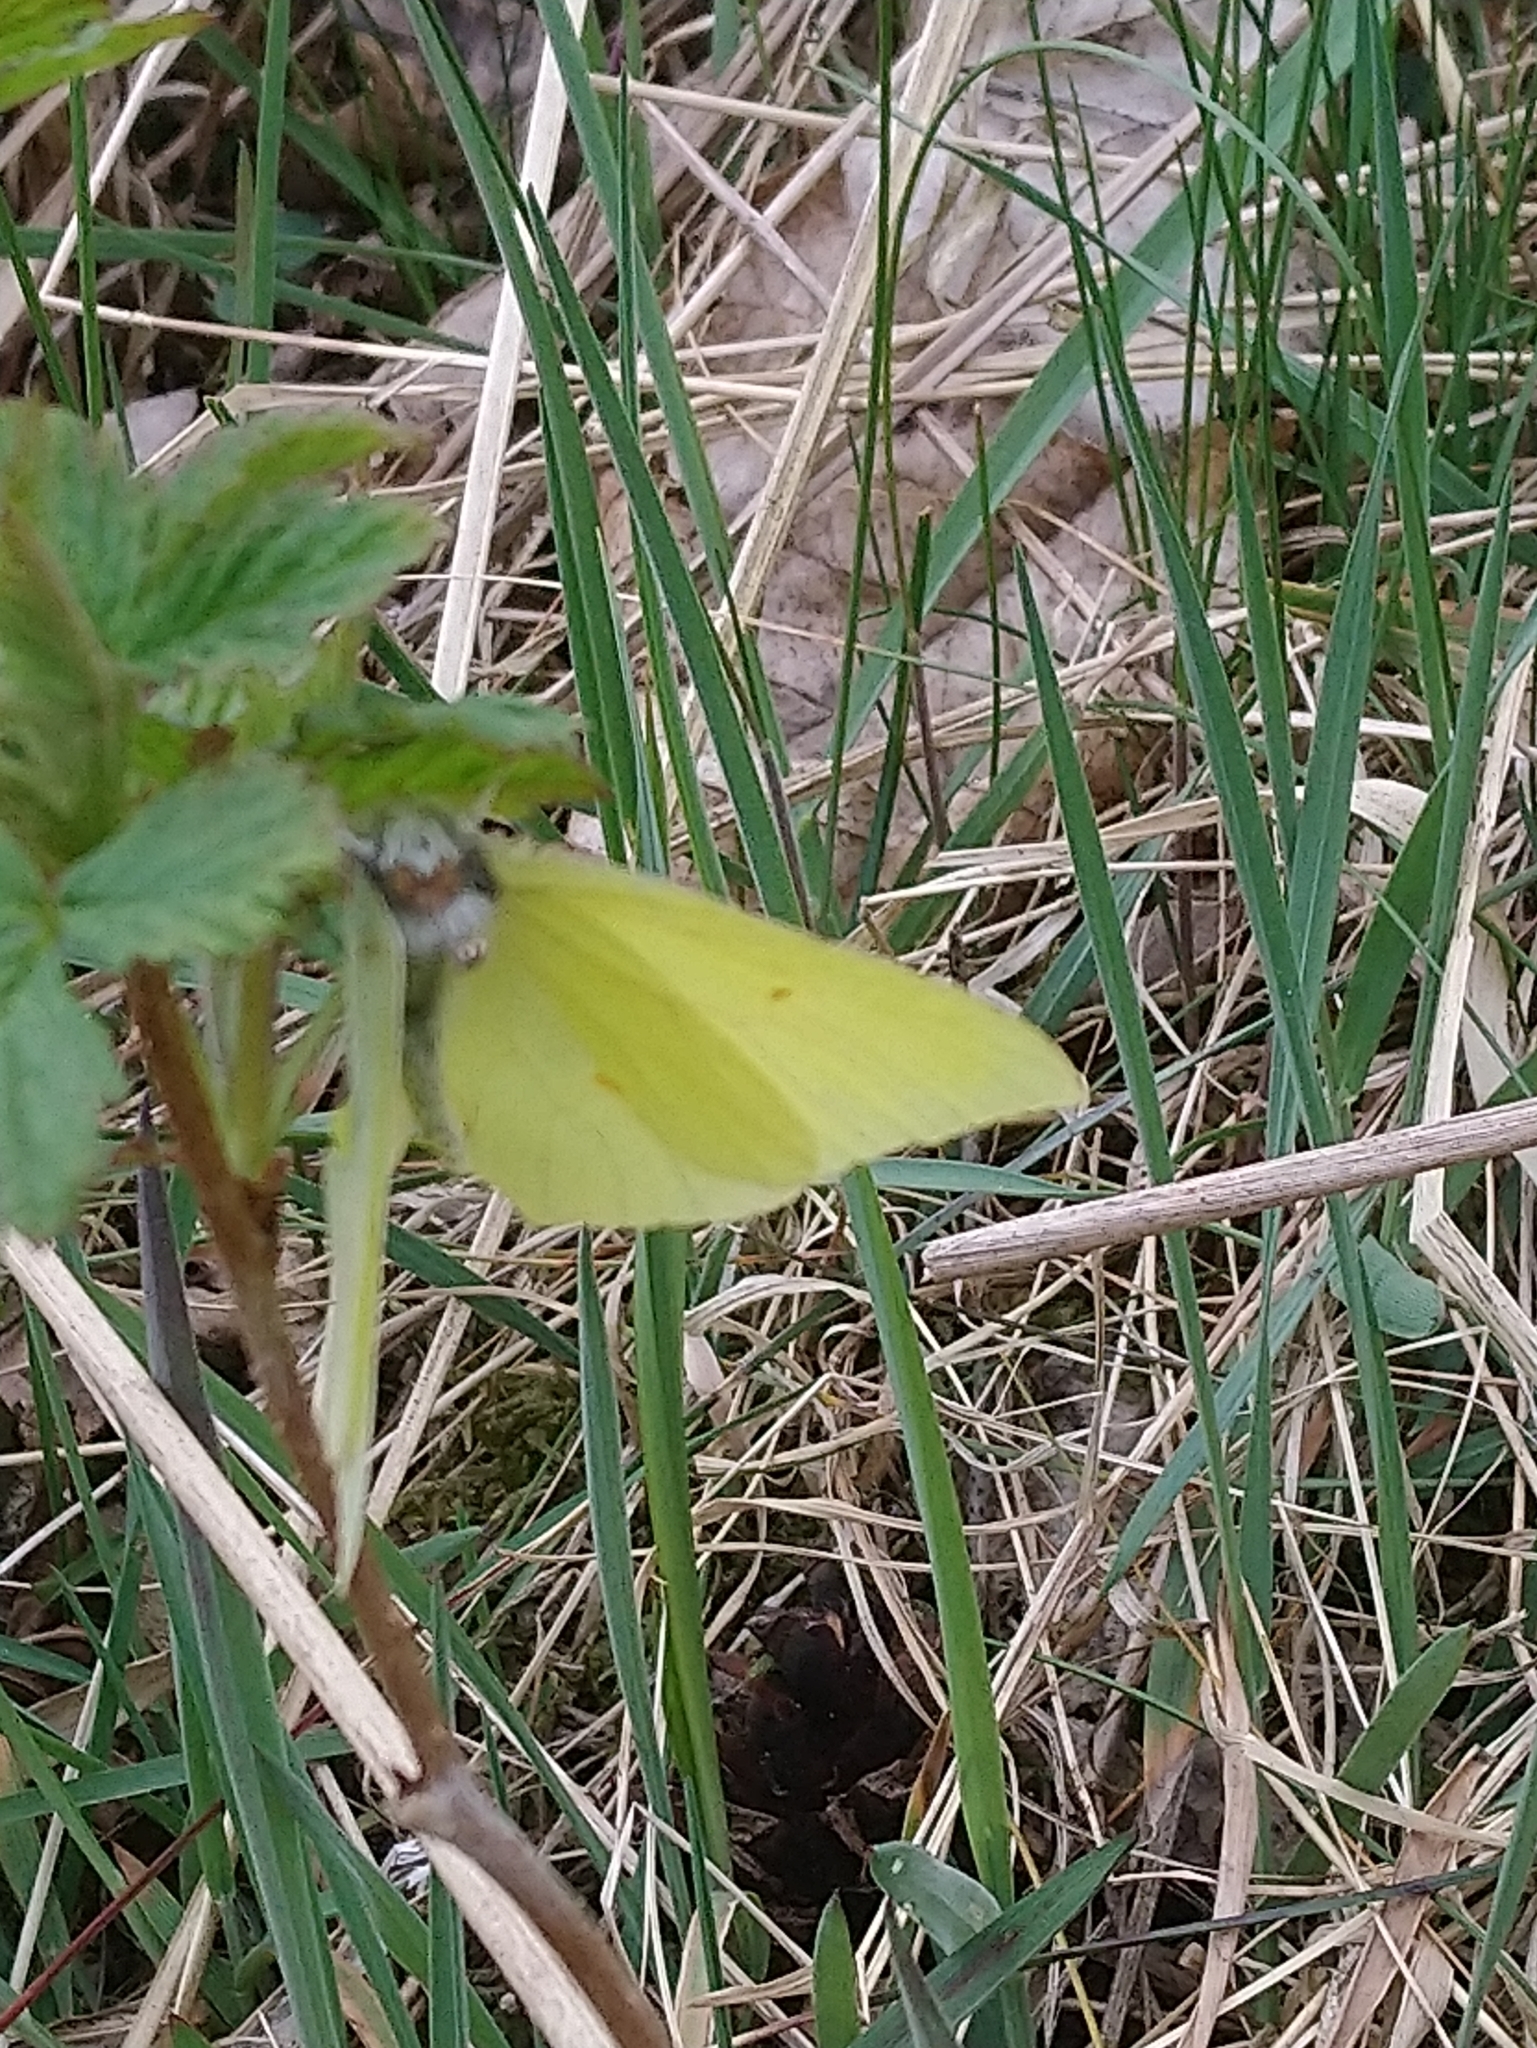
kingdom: Animalia
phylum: Arthropoda
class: Insecta
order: Lepidoptera
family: Pieridae
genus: Gonepteryx
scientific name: Gonepteryx rhamni
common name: Brimstone
